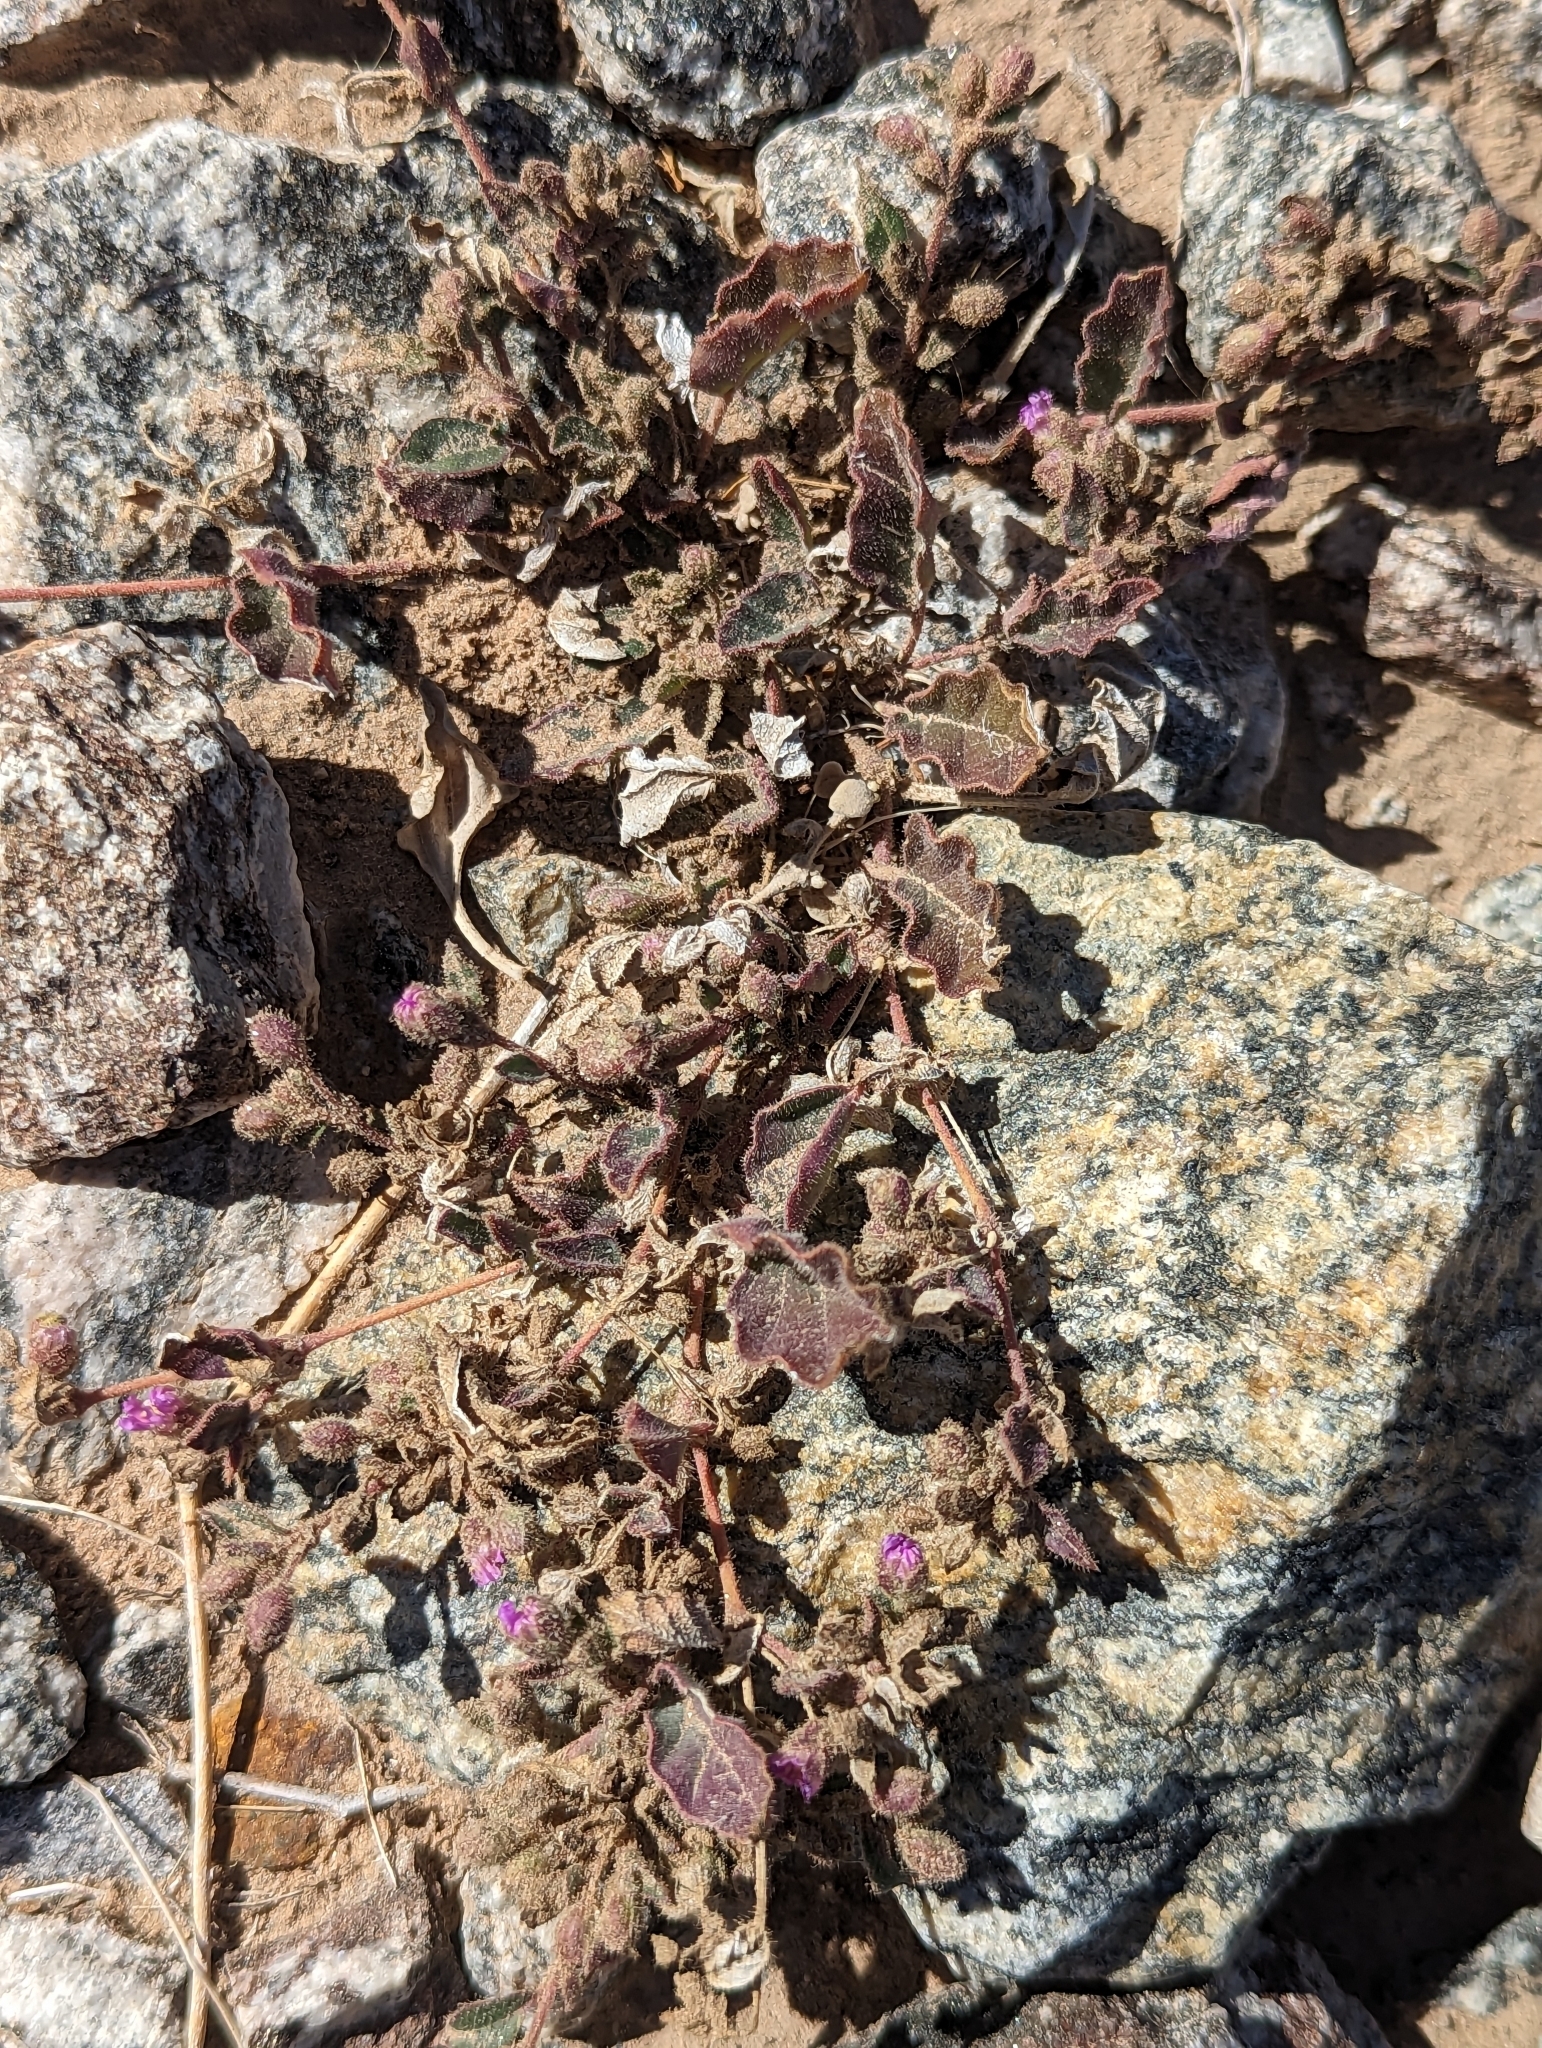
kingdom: Plantae
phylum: Tracheophyta
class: Magnoliopsida
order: Caryophyllales
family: Nyctaginaceae
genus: Allionia
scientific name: Allionia incarnata
